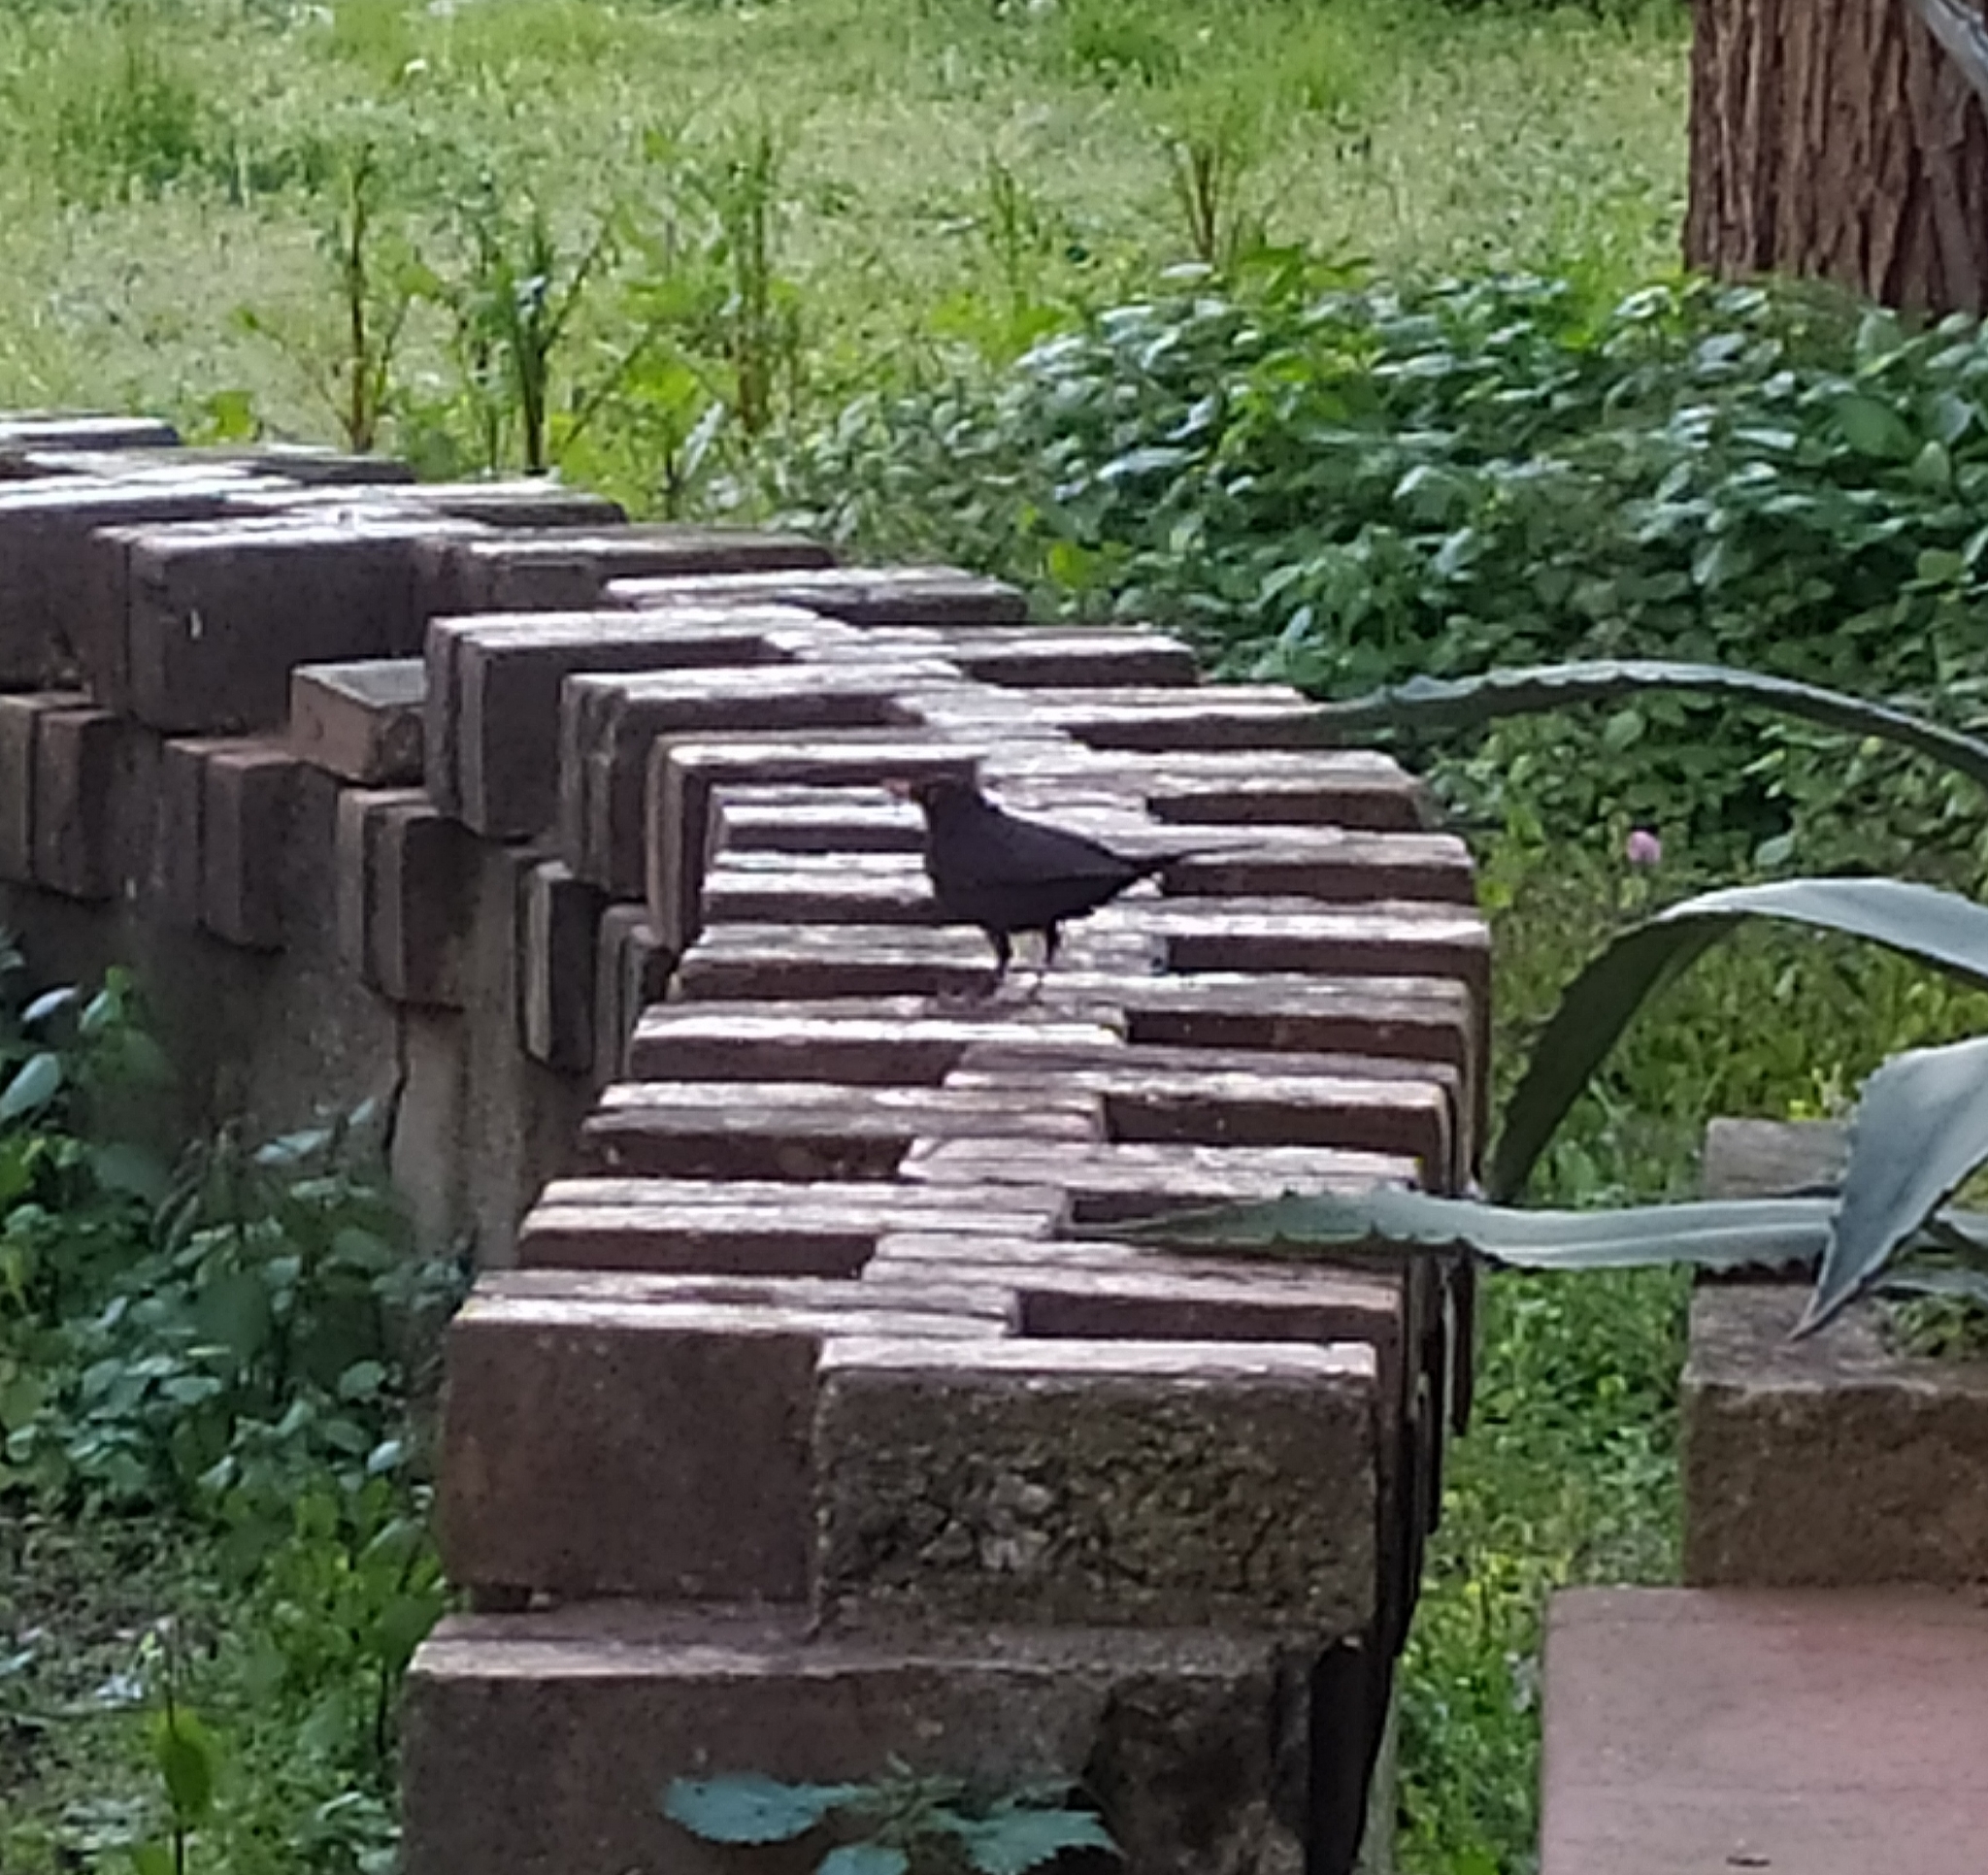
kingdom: Animalia
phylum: Chordata
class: Aves
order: Passeriformes
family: Turdidae
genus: Turdus
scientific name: Turdus merula
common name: Common blackbird
